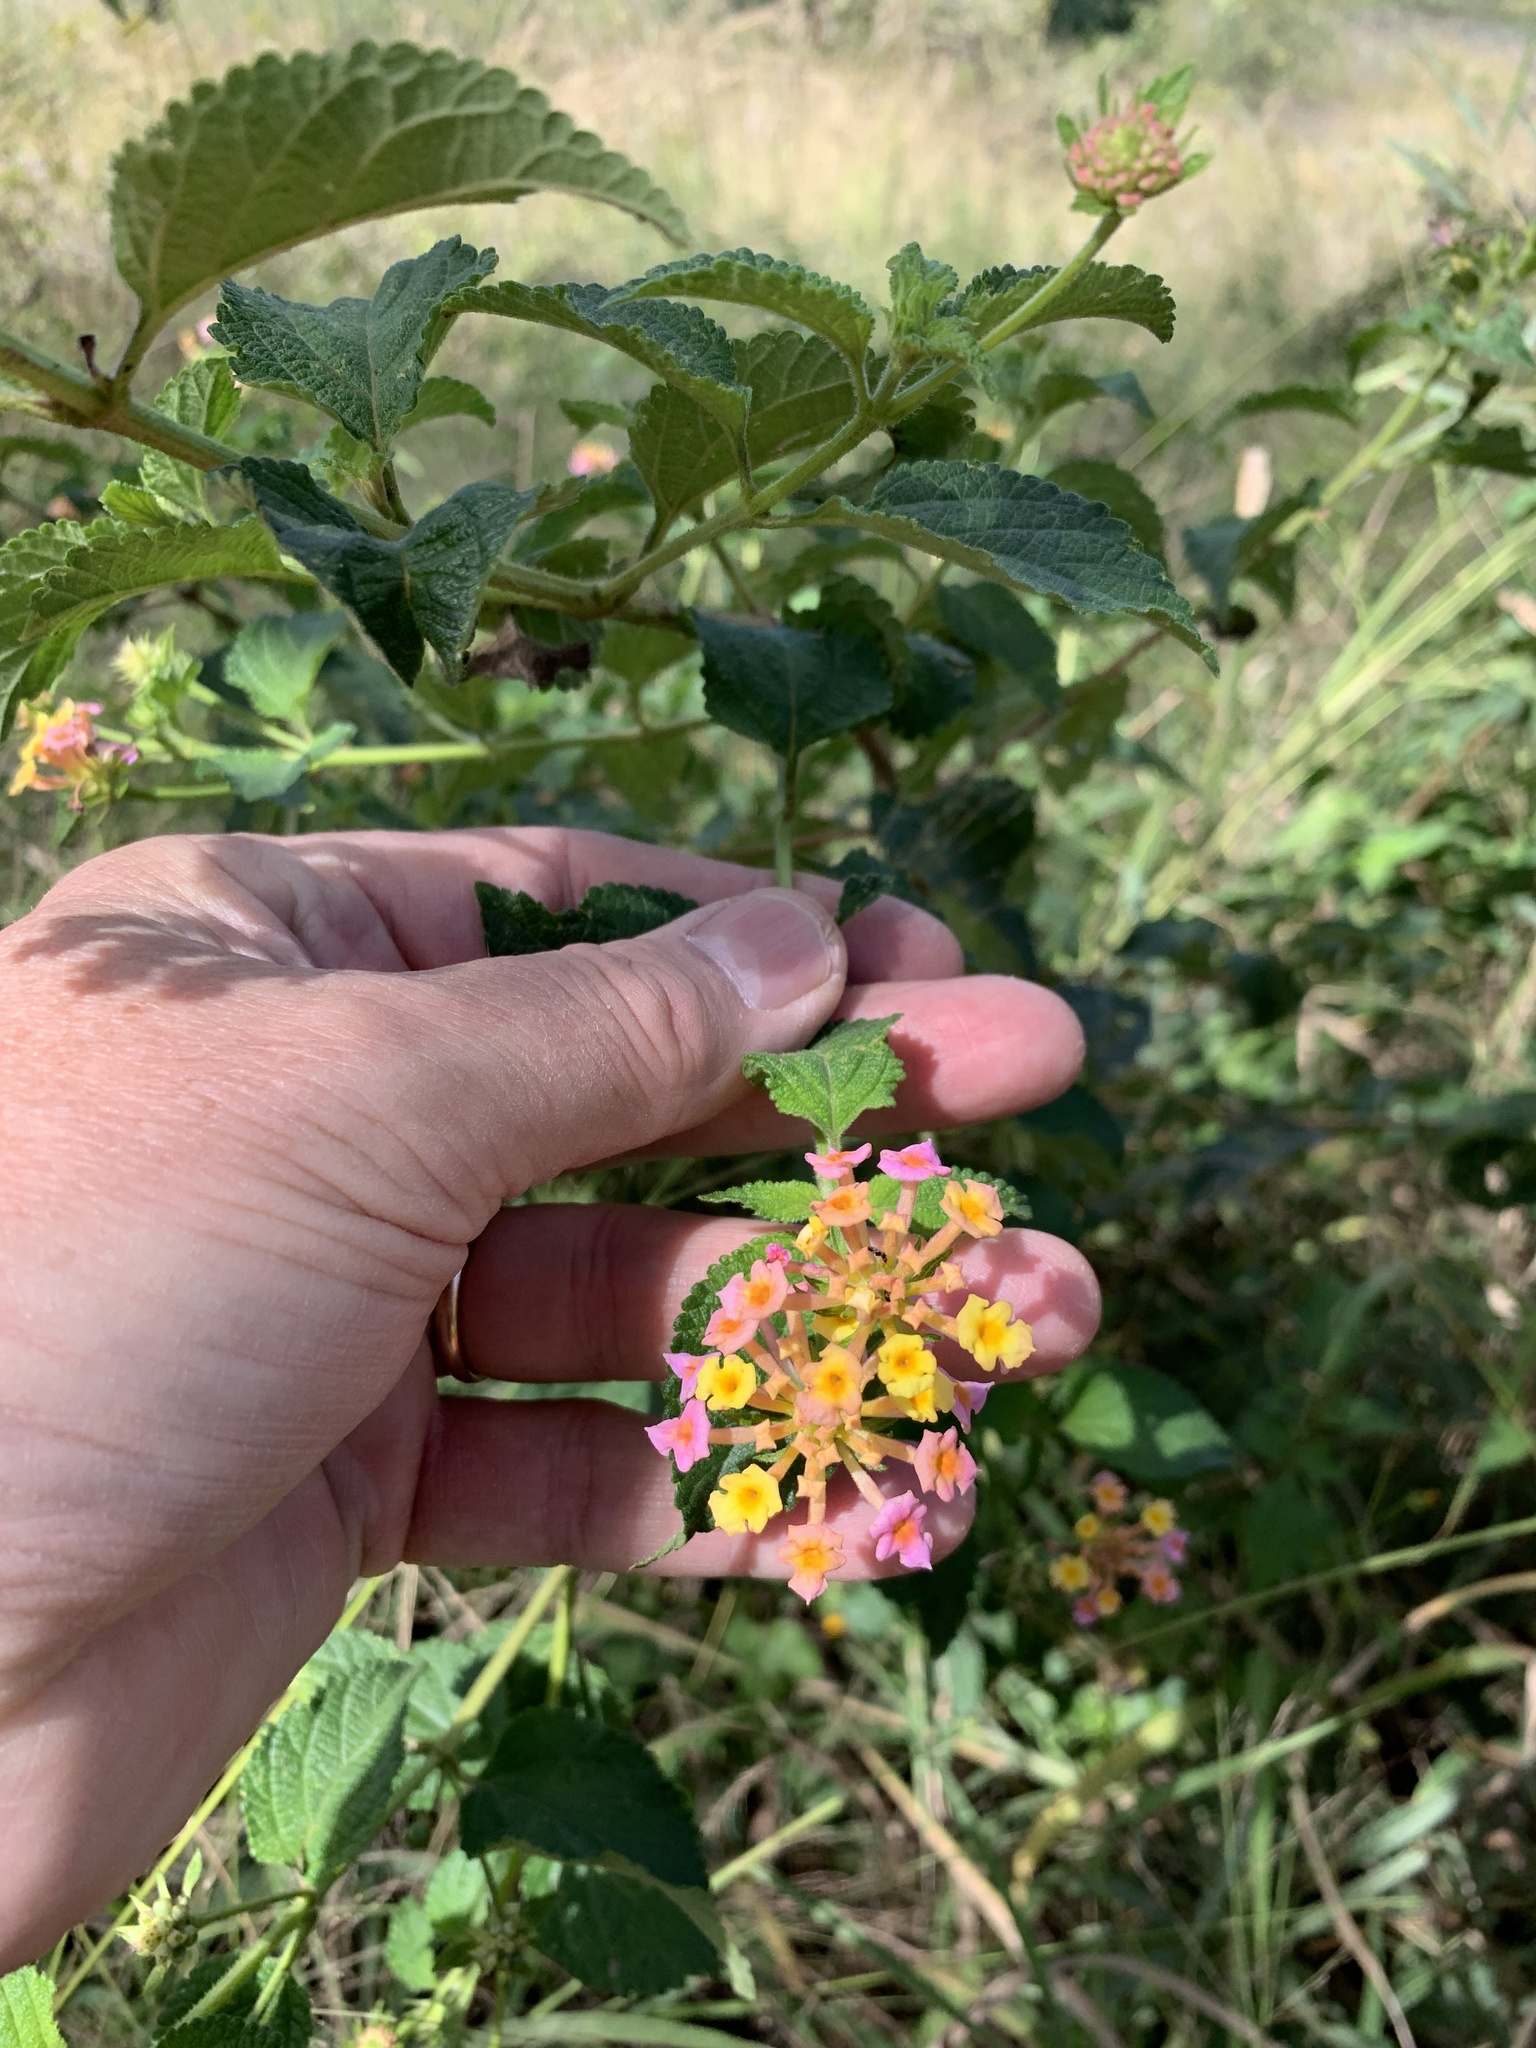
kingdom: Plantae
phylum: Tracheophyta
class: Magnoliopsida
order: Lamiales
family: Verbenaceae
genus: Lantana
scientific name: Lantana camara
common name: Lantana
